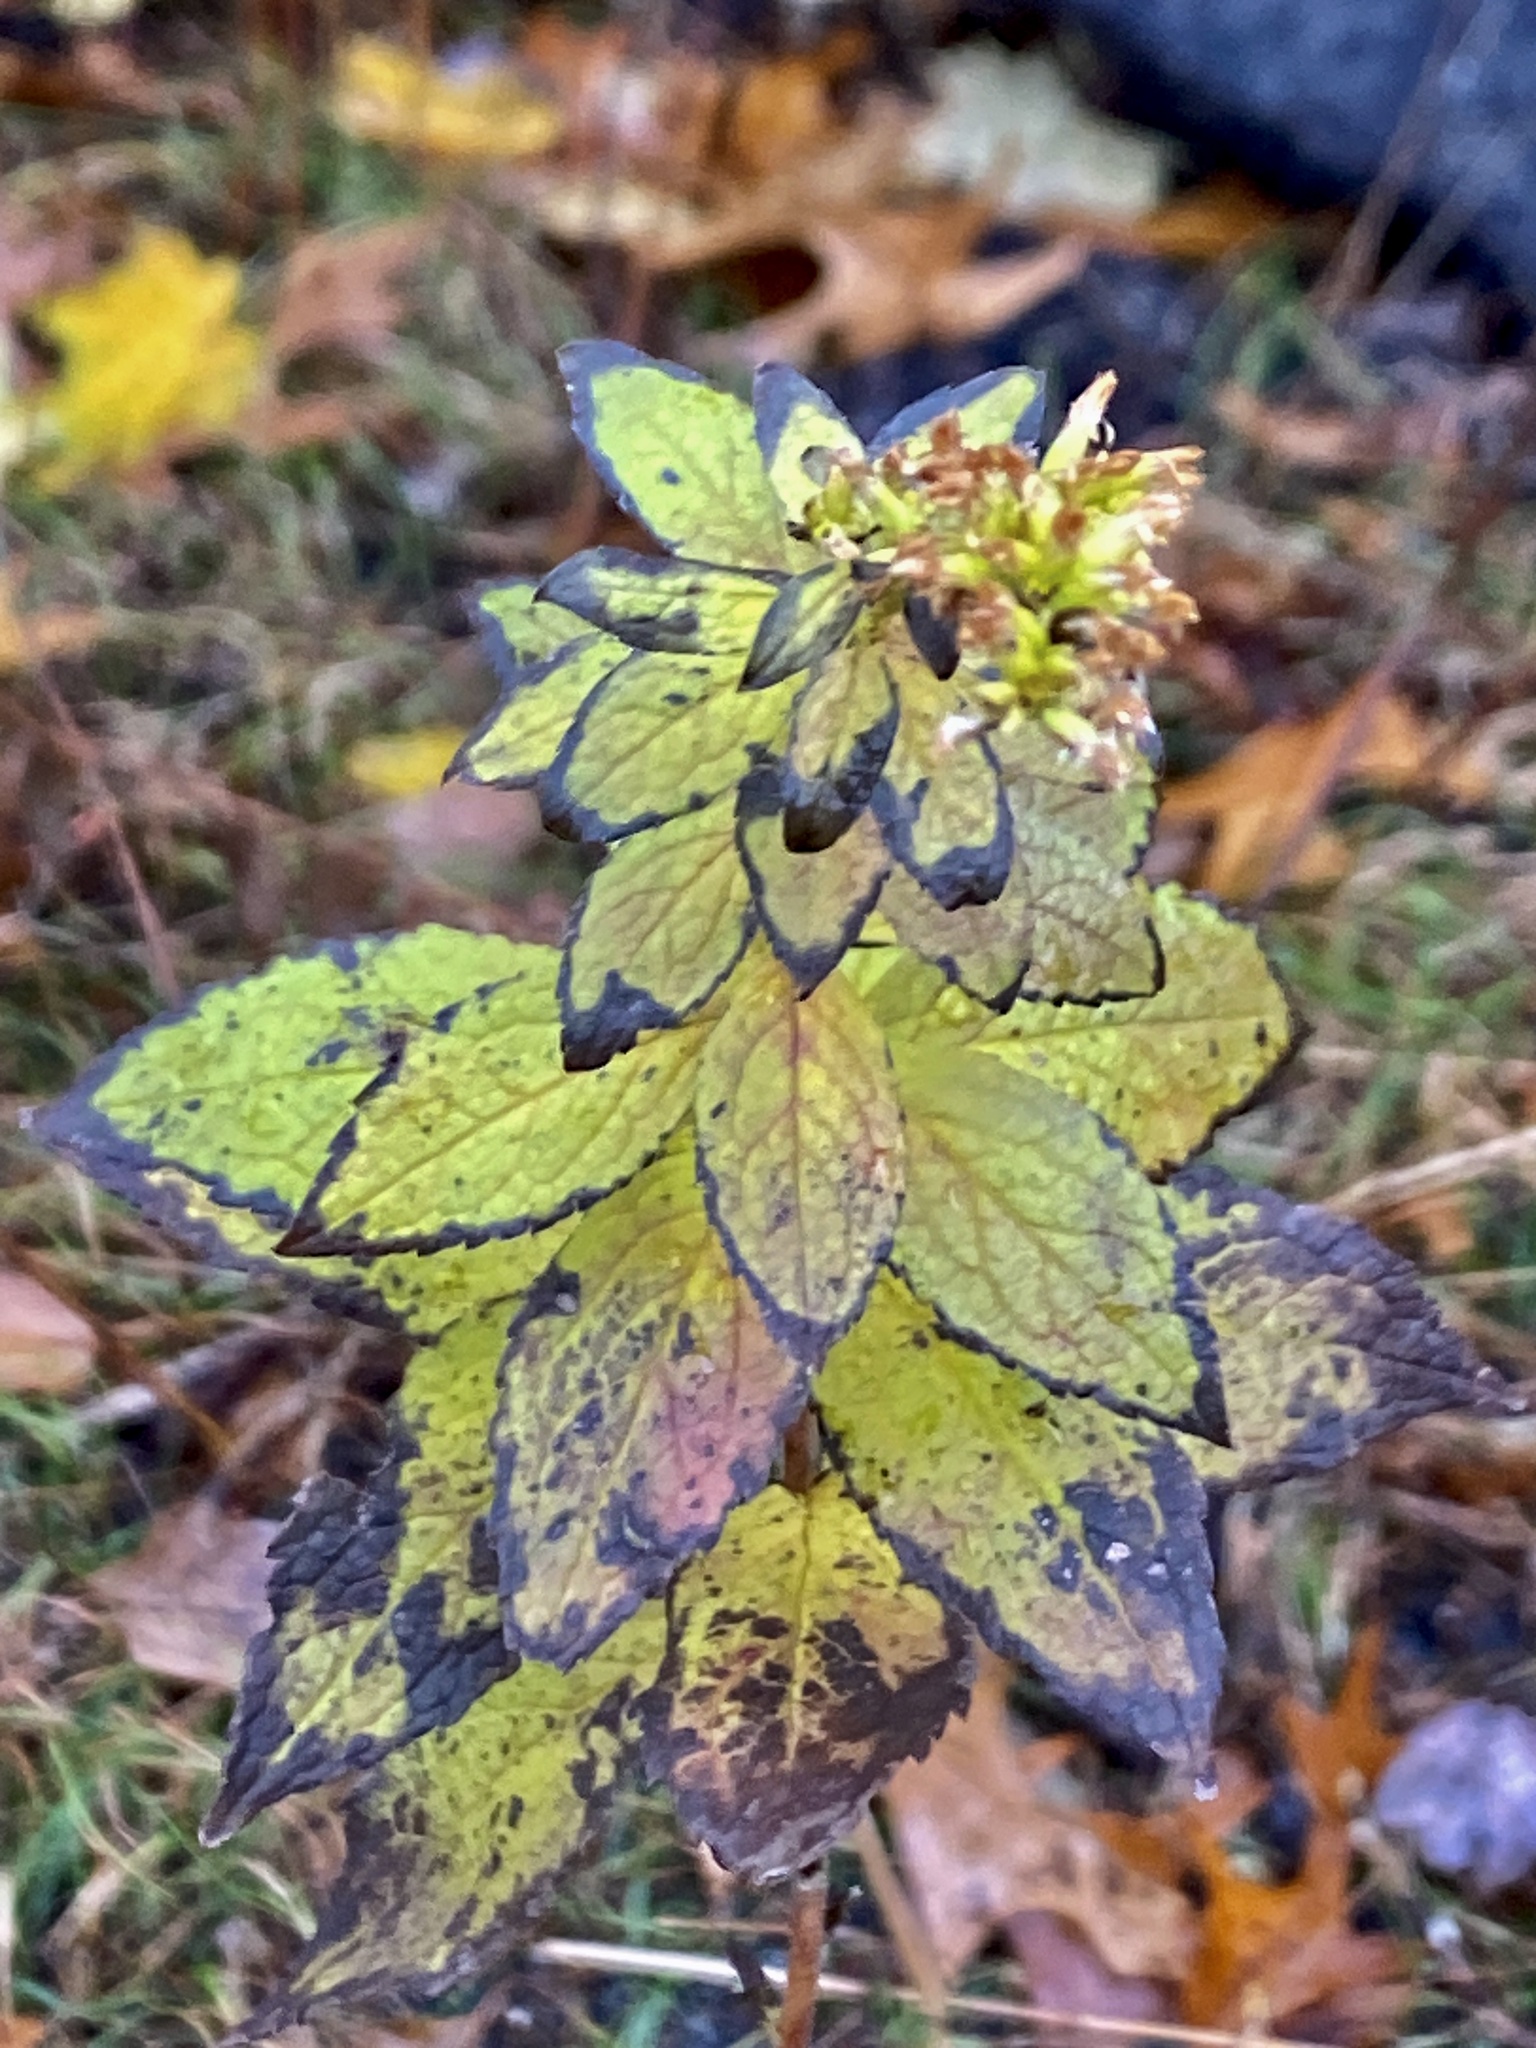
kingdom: Plantae
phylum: Tracheophyta
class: Magnoliopsida
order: Asterales
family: Asteraceae
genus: Solidago
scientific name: Solidago rugosa
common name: Rough-stemmed goldenrod
